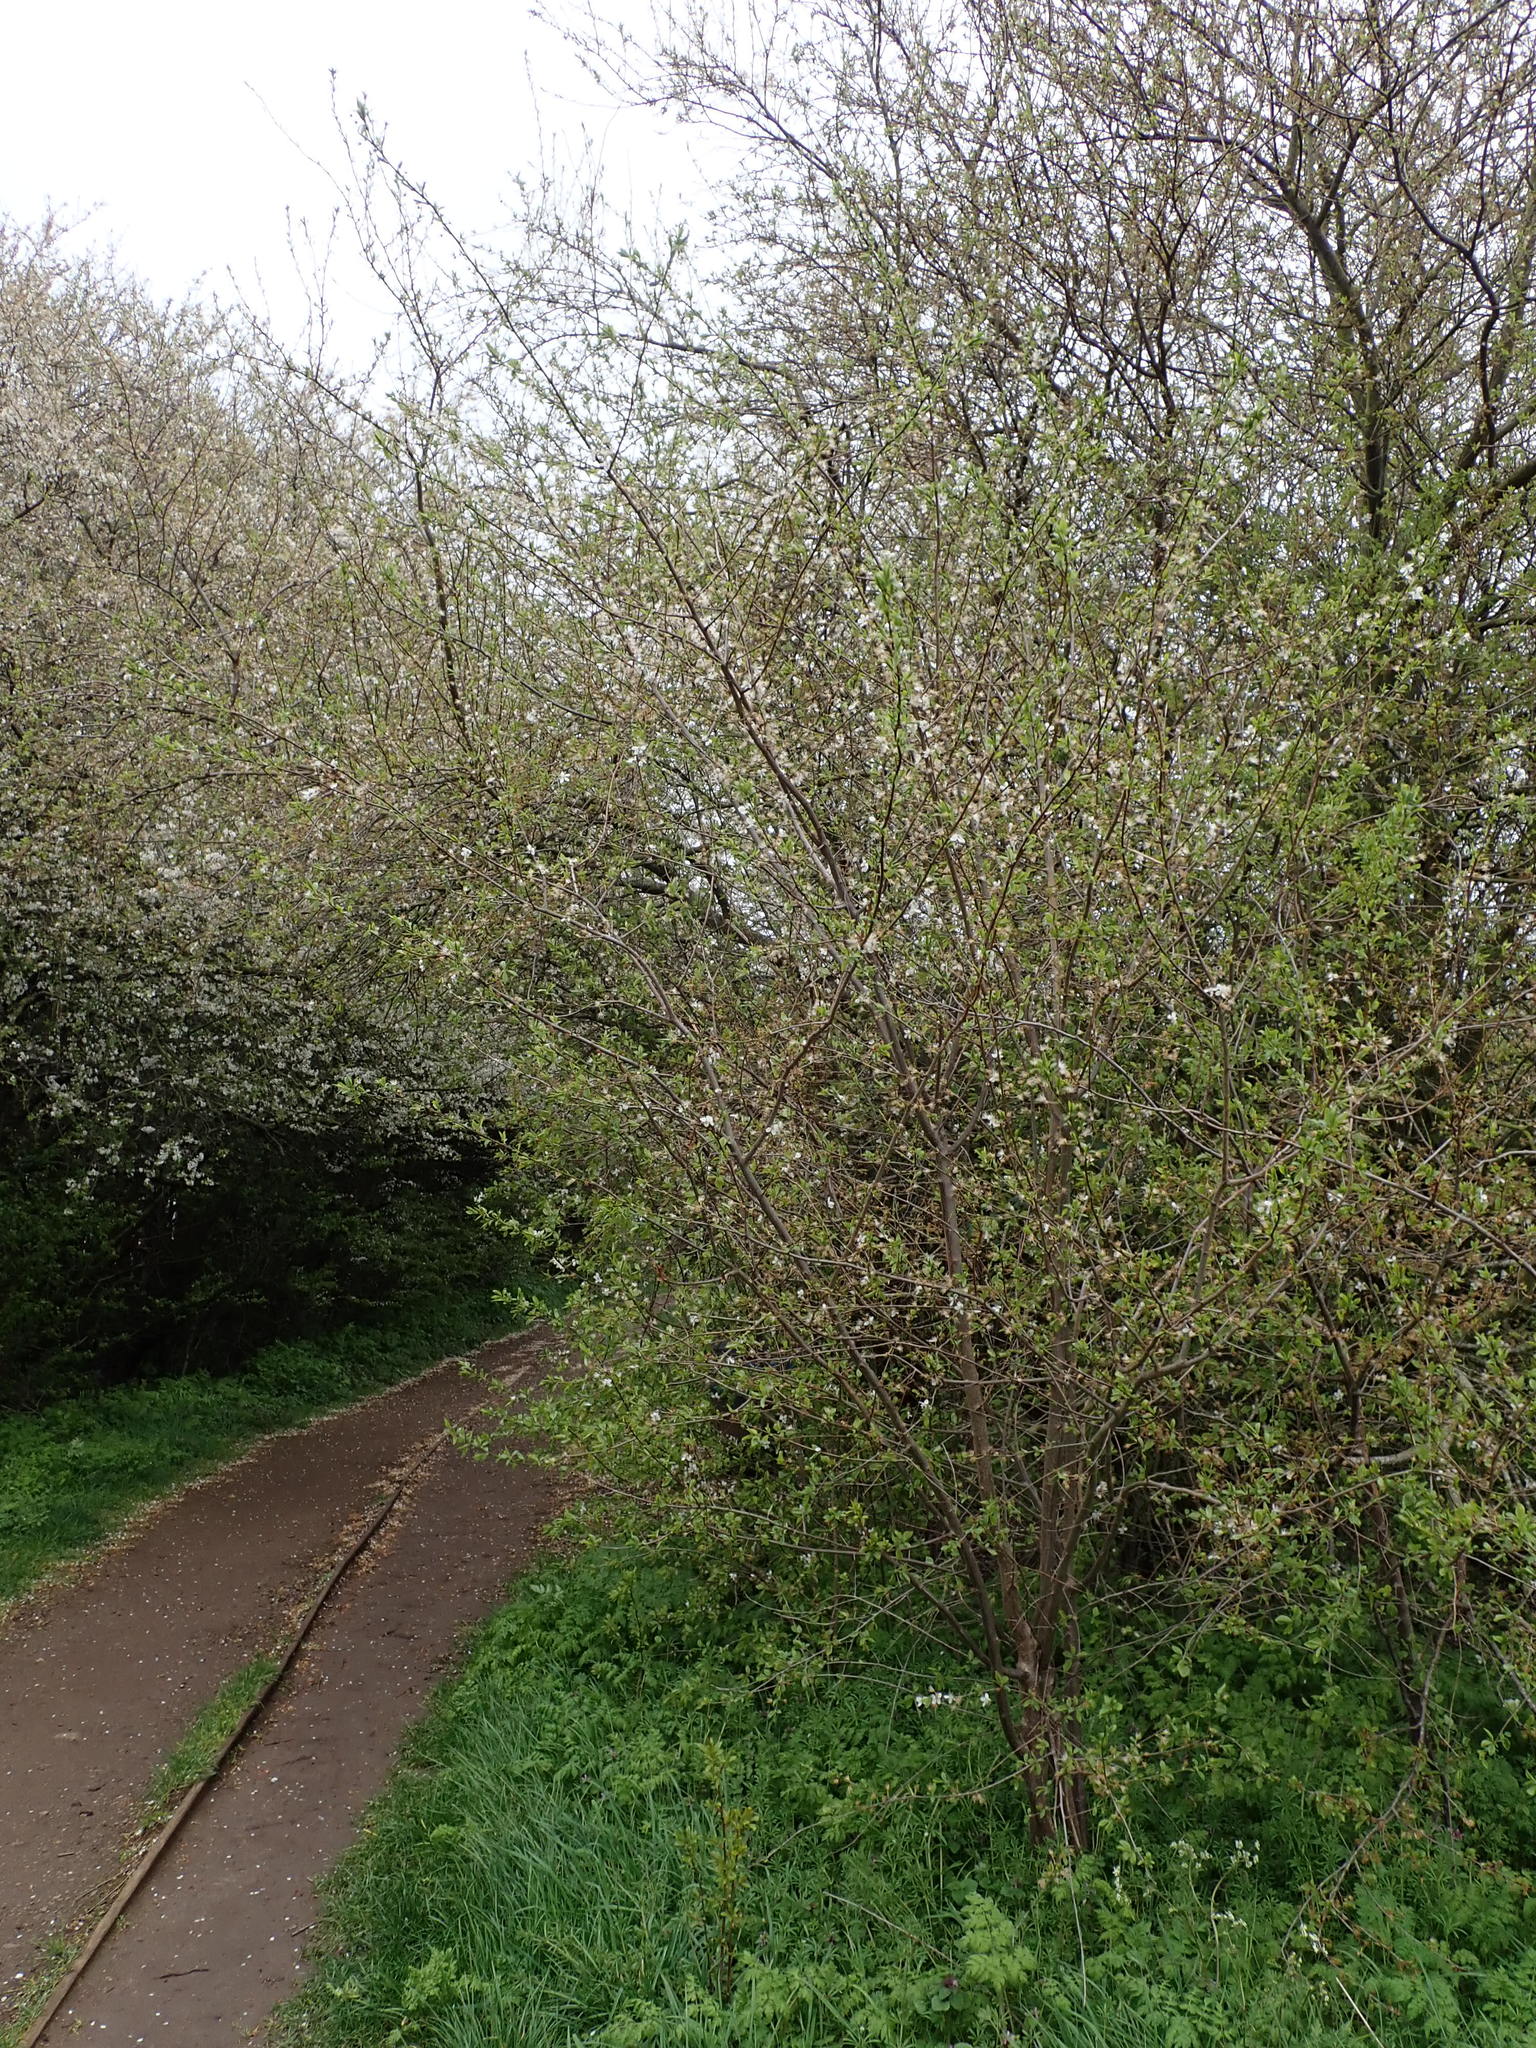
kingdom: Plantae
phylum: Tracheophyta
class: Magnoliopsida
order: Rosales
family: Rosaceae
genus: Prunus
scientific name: Prunus cerasifera
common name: Cherry plum
